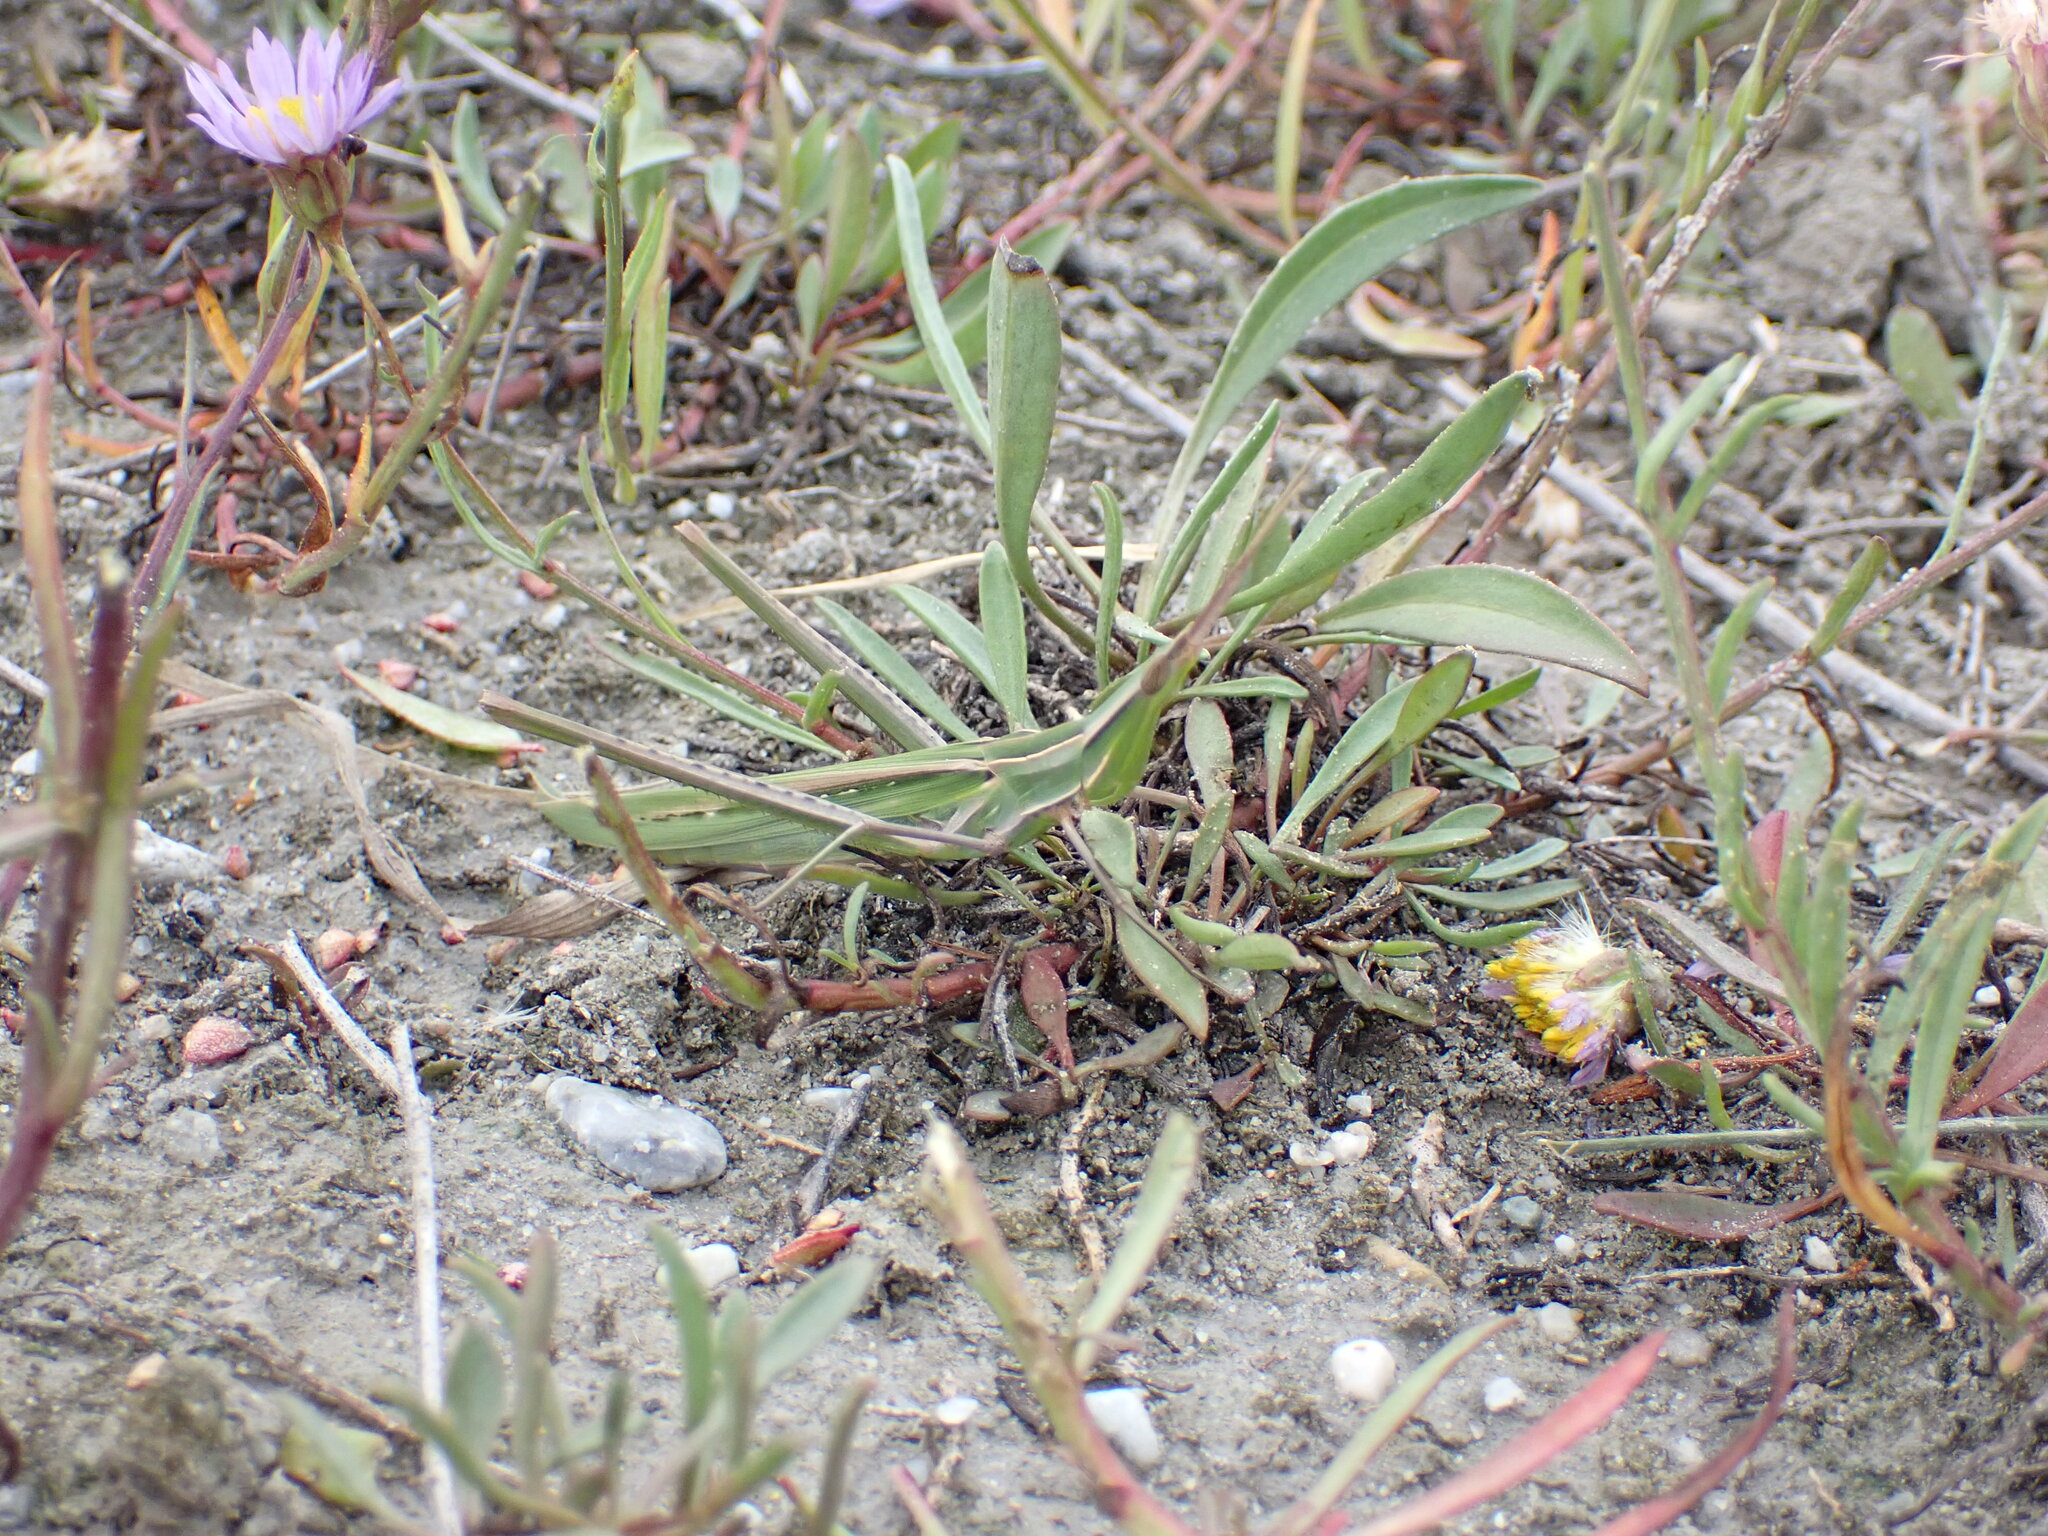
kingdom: Plantae
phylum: Tracheophyta
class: Magnoliopsida
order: Asterales
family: Asteraceae
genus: Tripolium
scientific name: Tripolium pannonicum
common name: Sea aster
